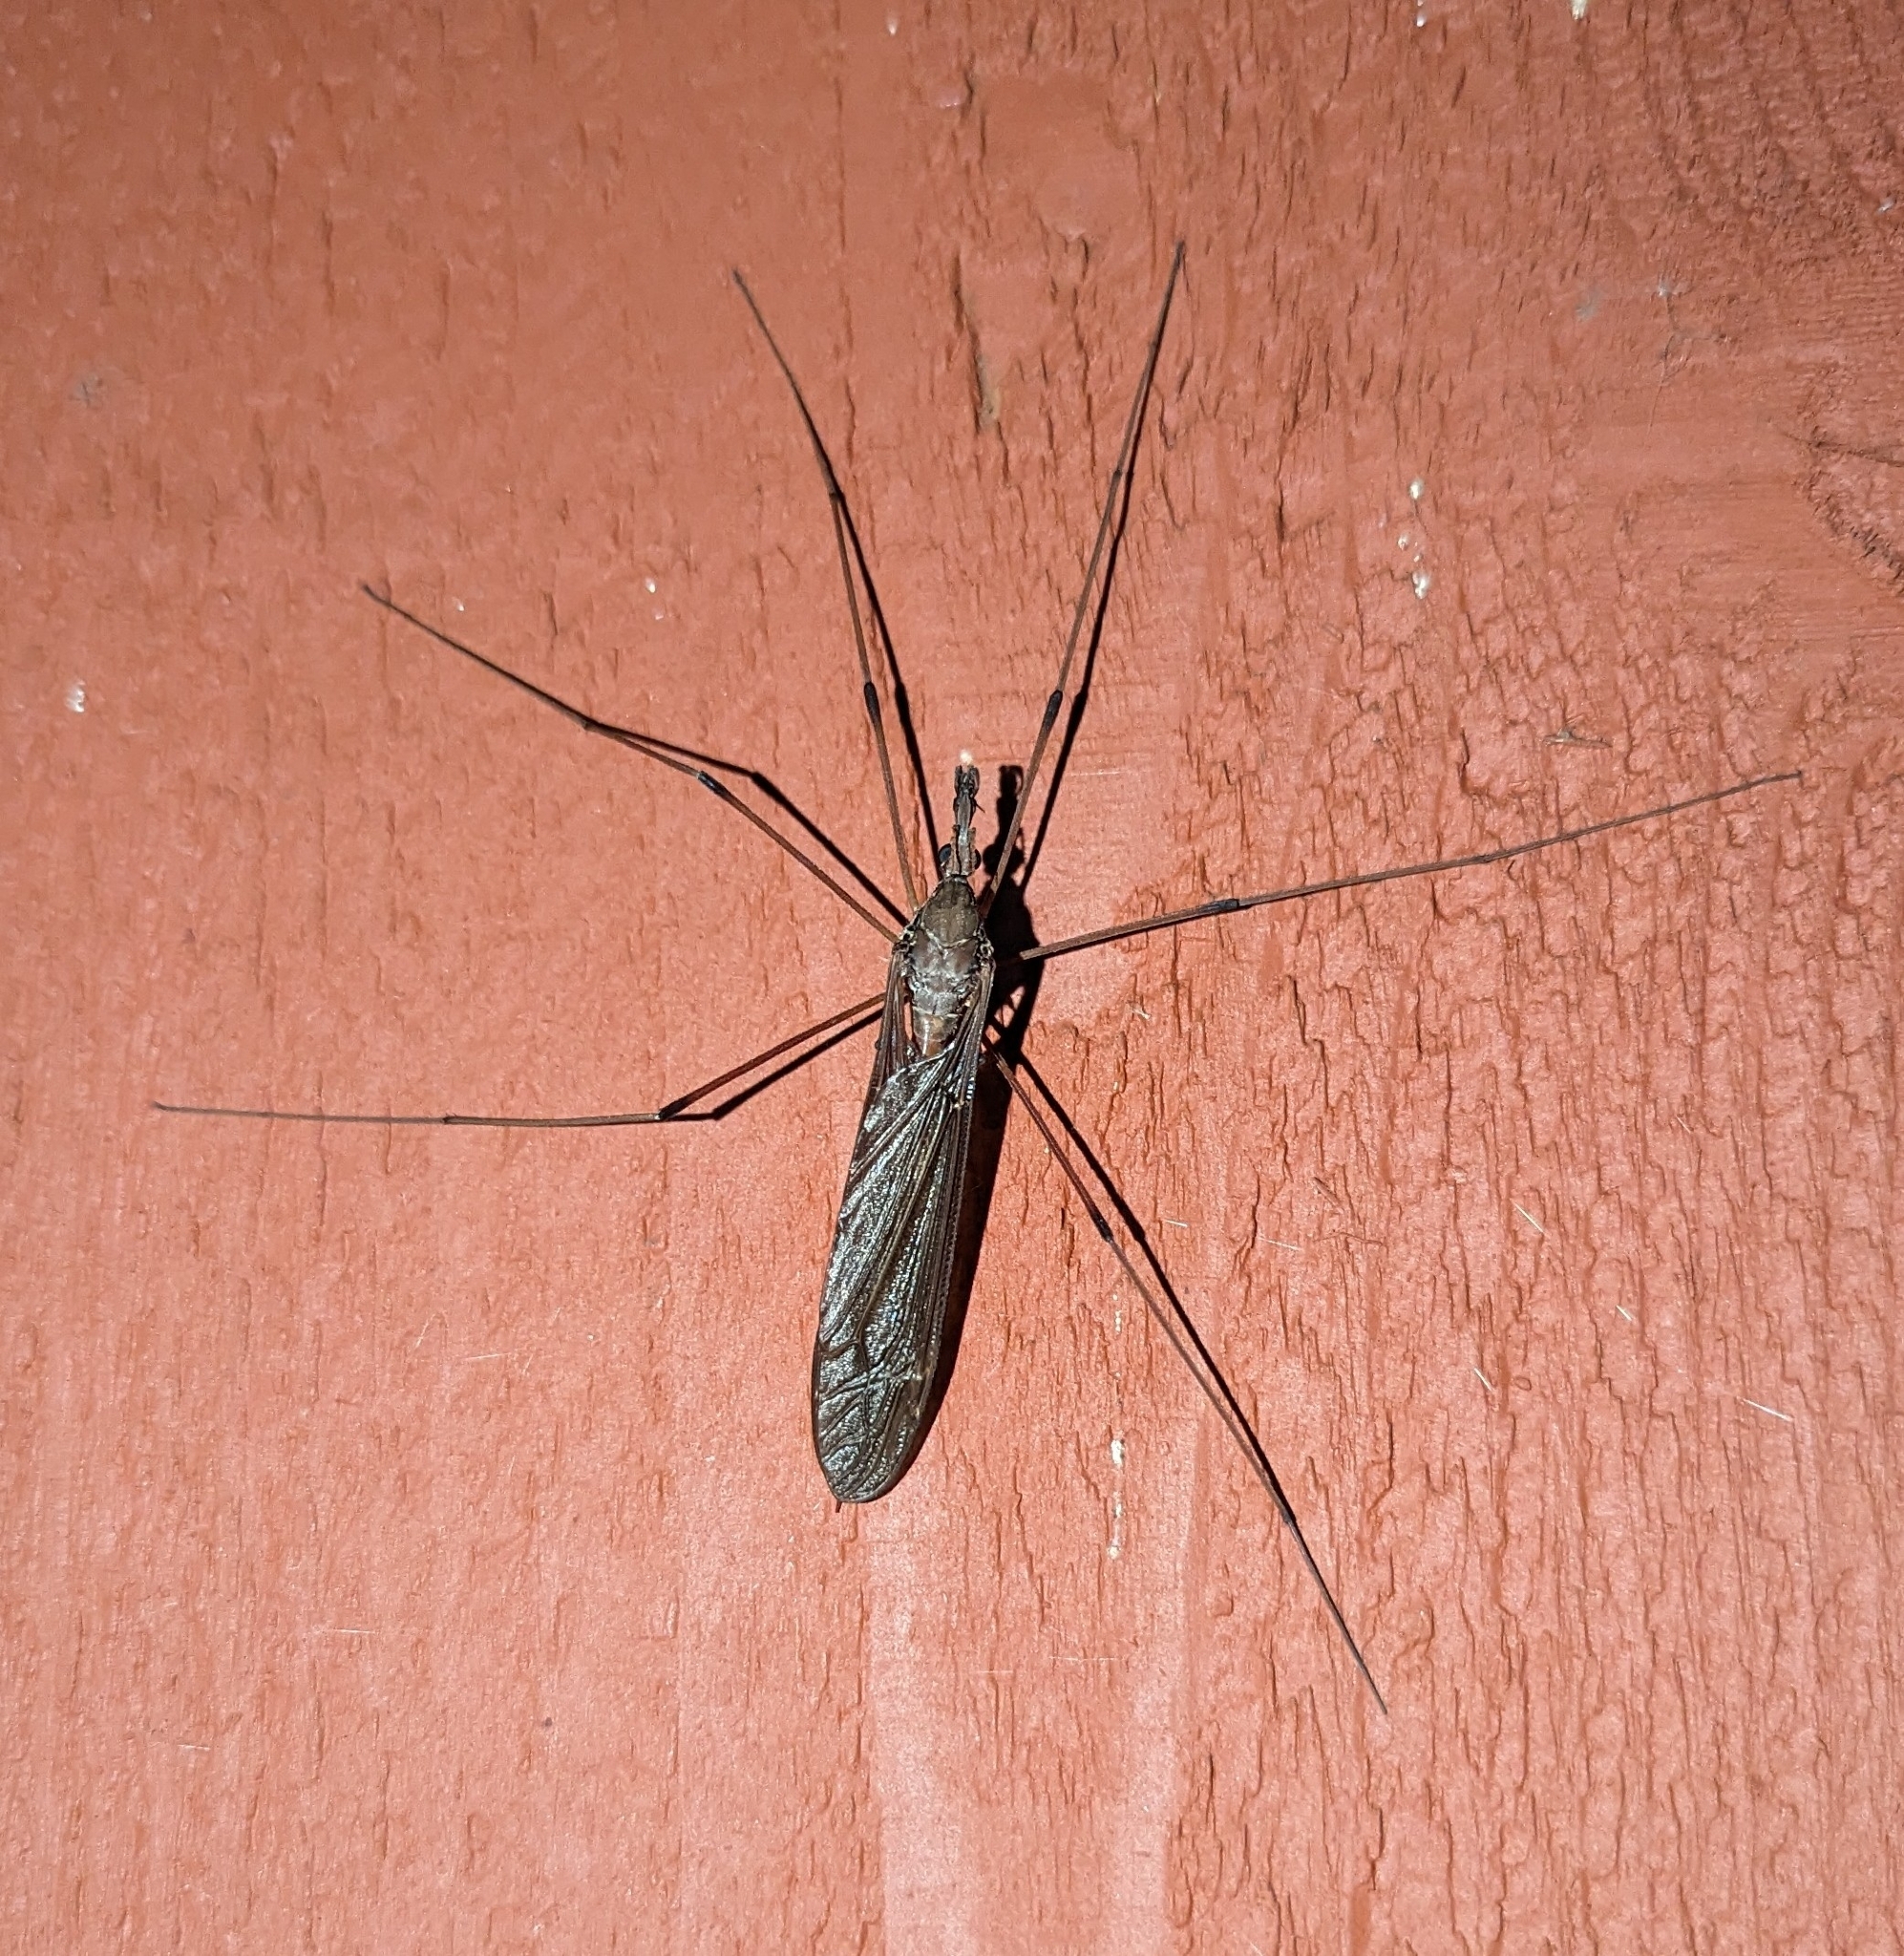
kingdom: Animalia
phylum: Arthropoda
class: Insecta
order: Diptera
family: Tipulidae
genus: Holorusia
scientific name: Holorusia hespera
